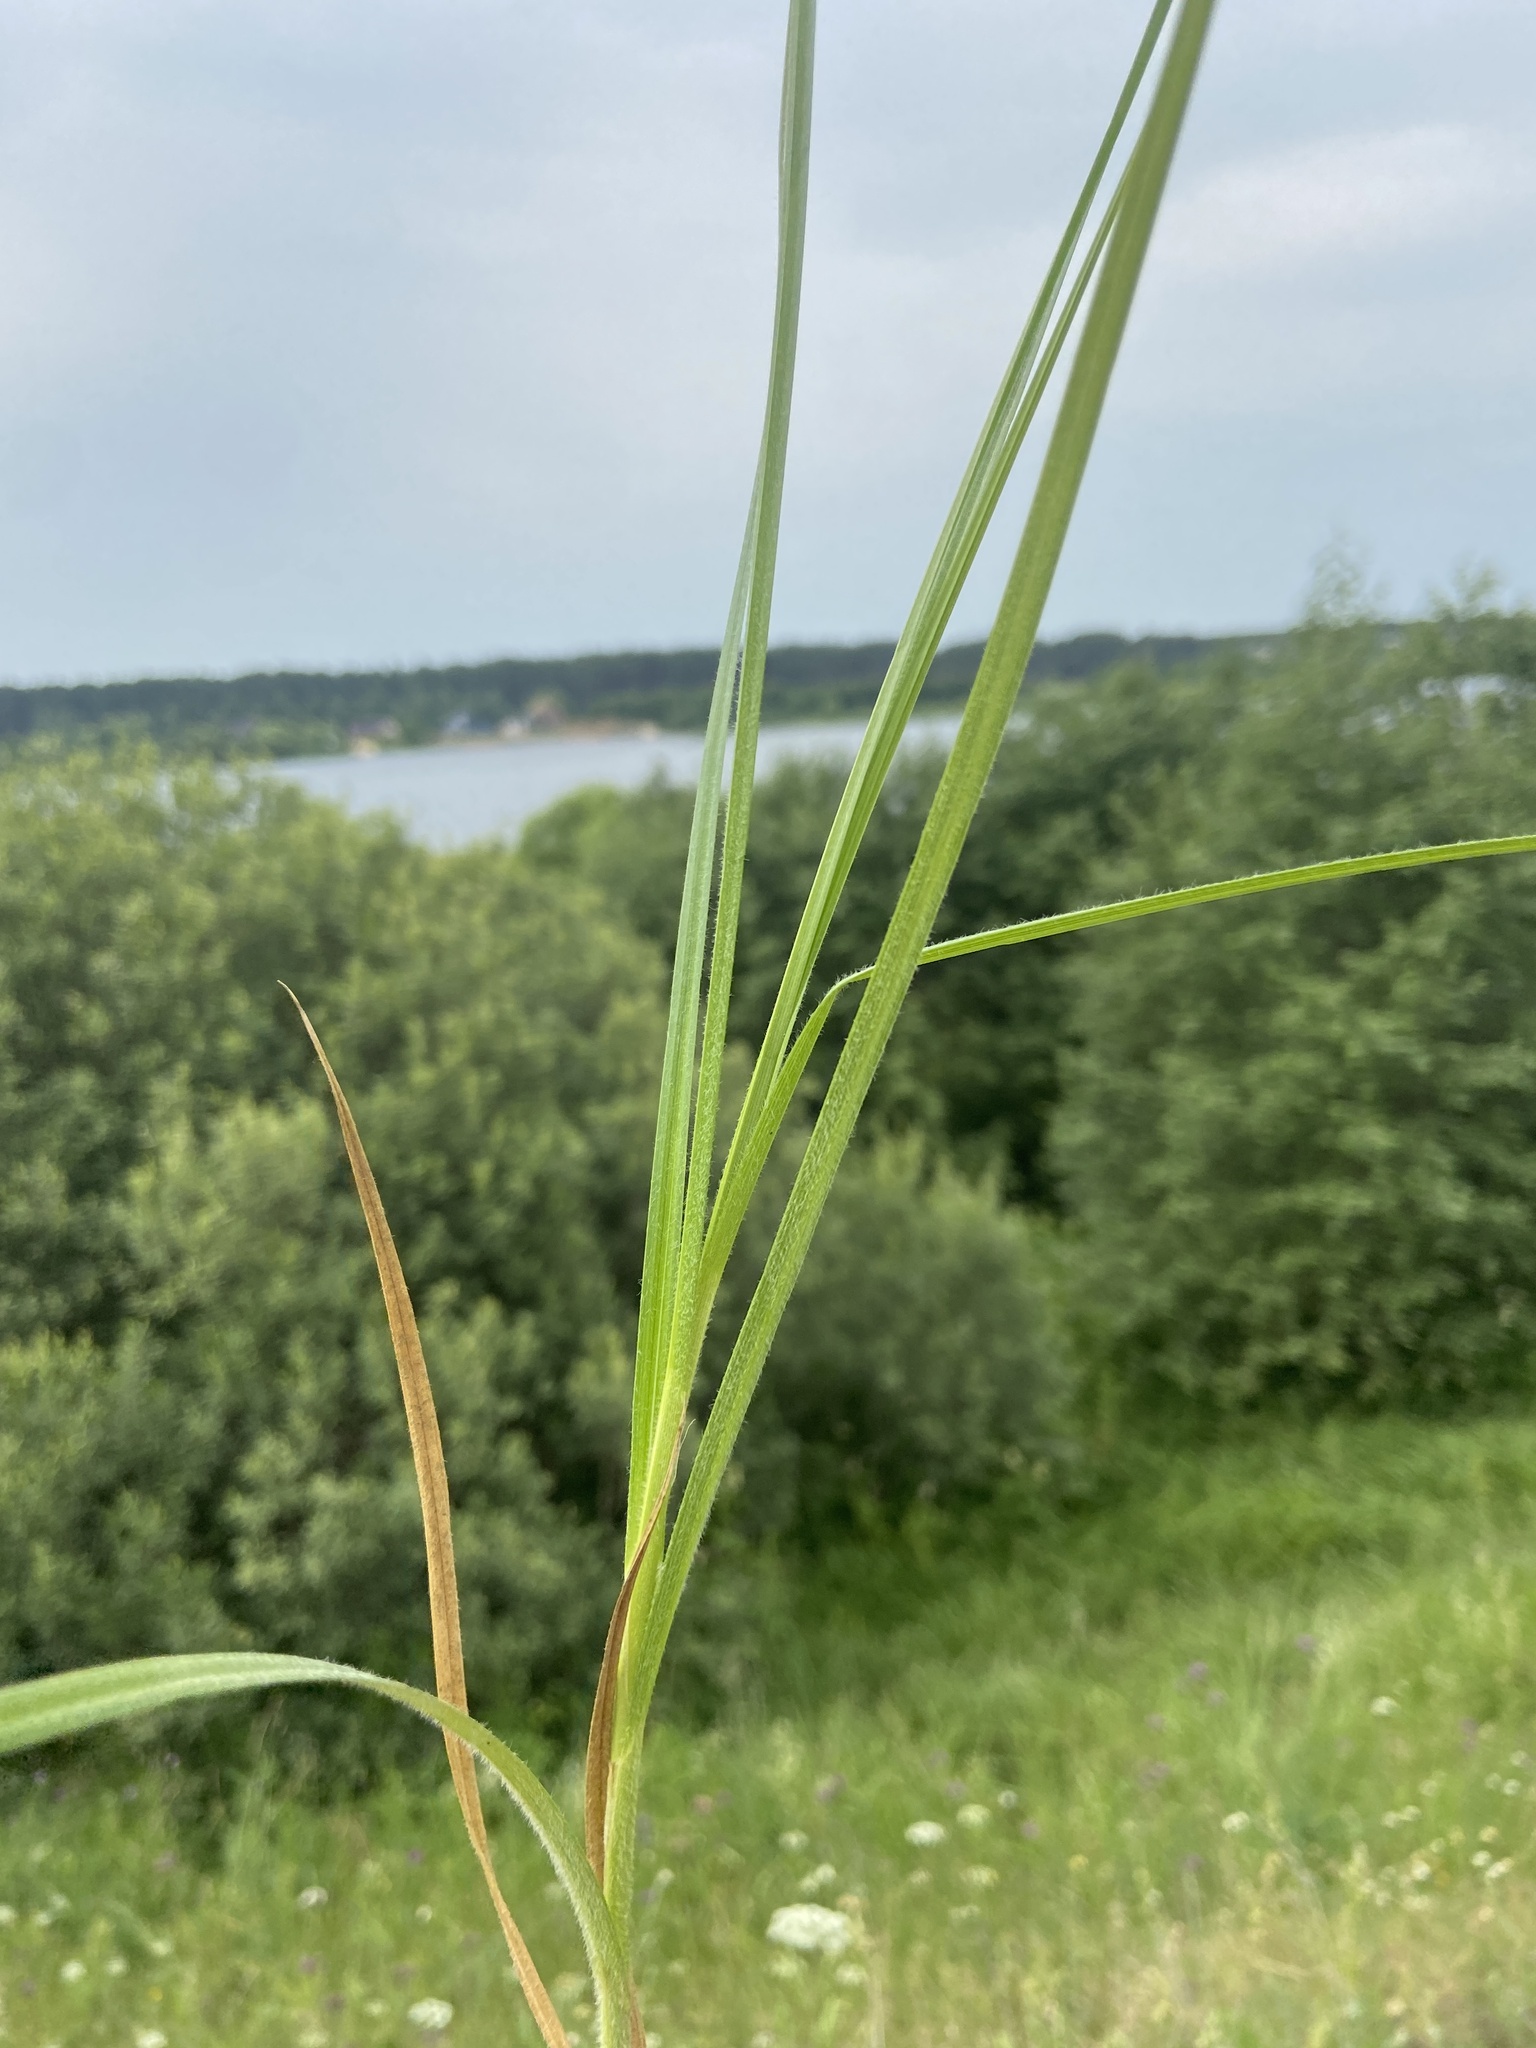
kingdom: Plantae
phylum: Tracheophyta
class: Liliopsida
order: Poales
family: Cyperaceae
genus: Carex
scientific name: Carex spicata
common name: Spiked sedge
